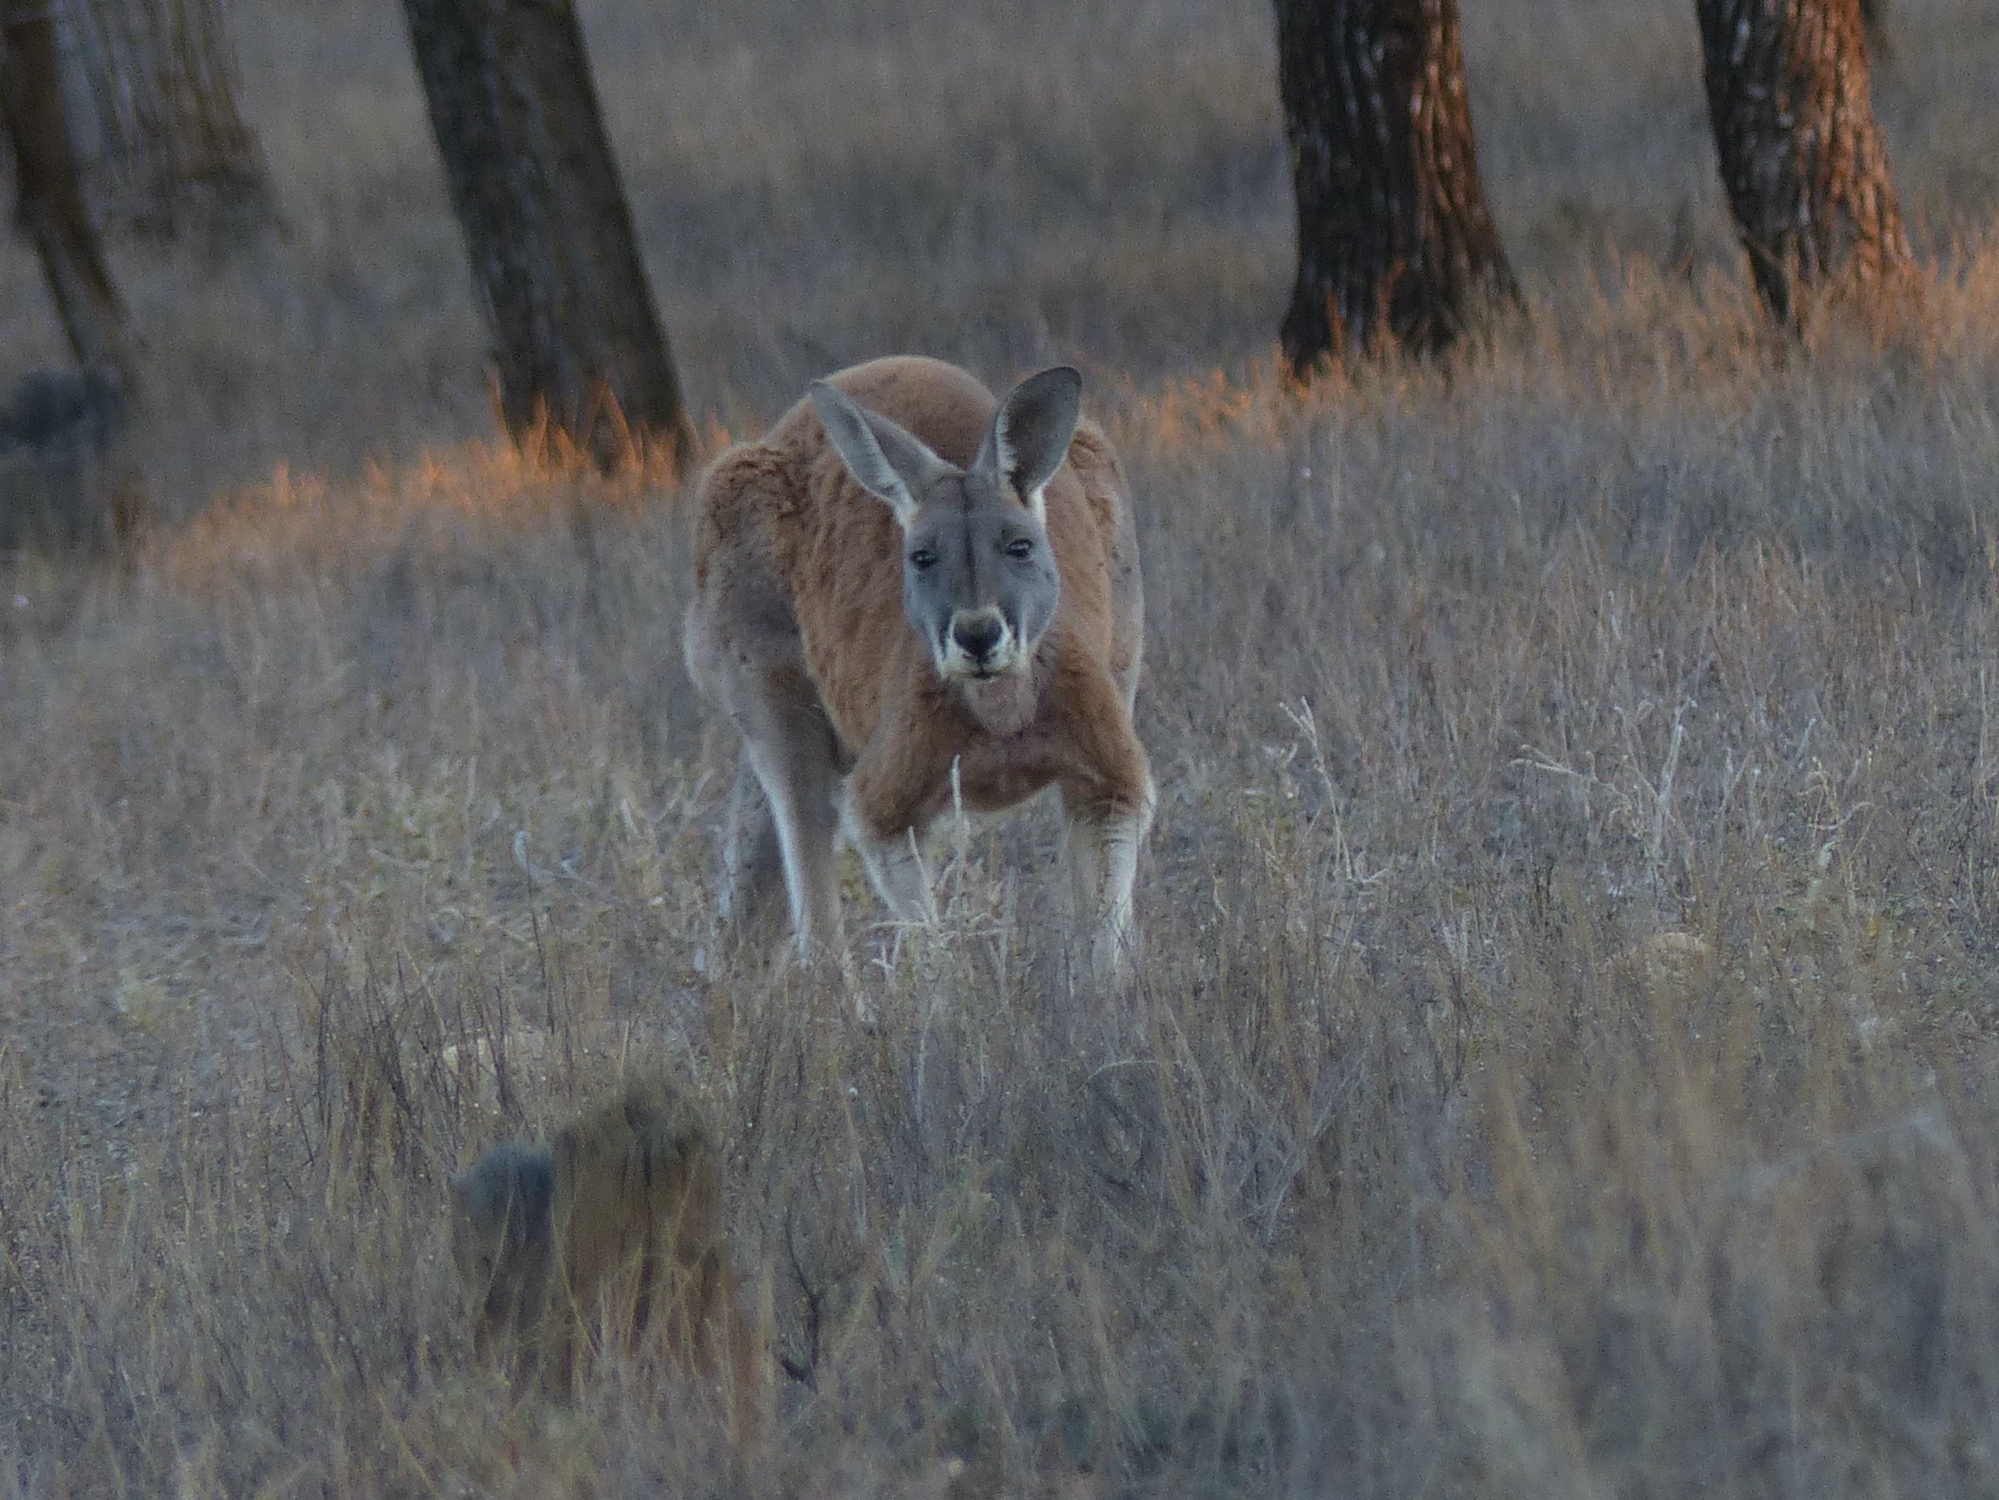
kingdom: Animalia
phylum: Chordata
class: Mammalia
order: Diprotodontia
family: Macropodidae
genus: Macropus
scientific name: Macropus rufus
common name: Red kangaroo
